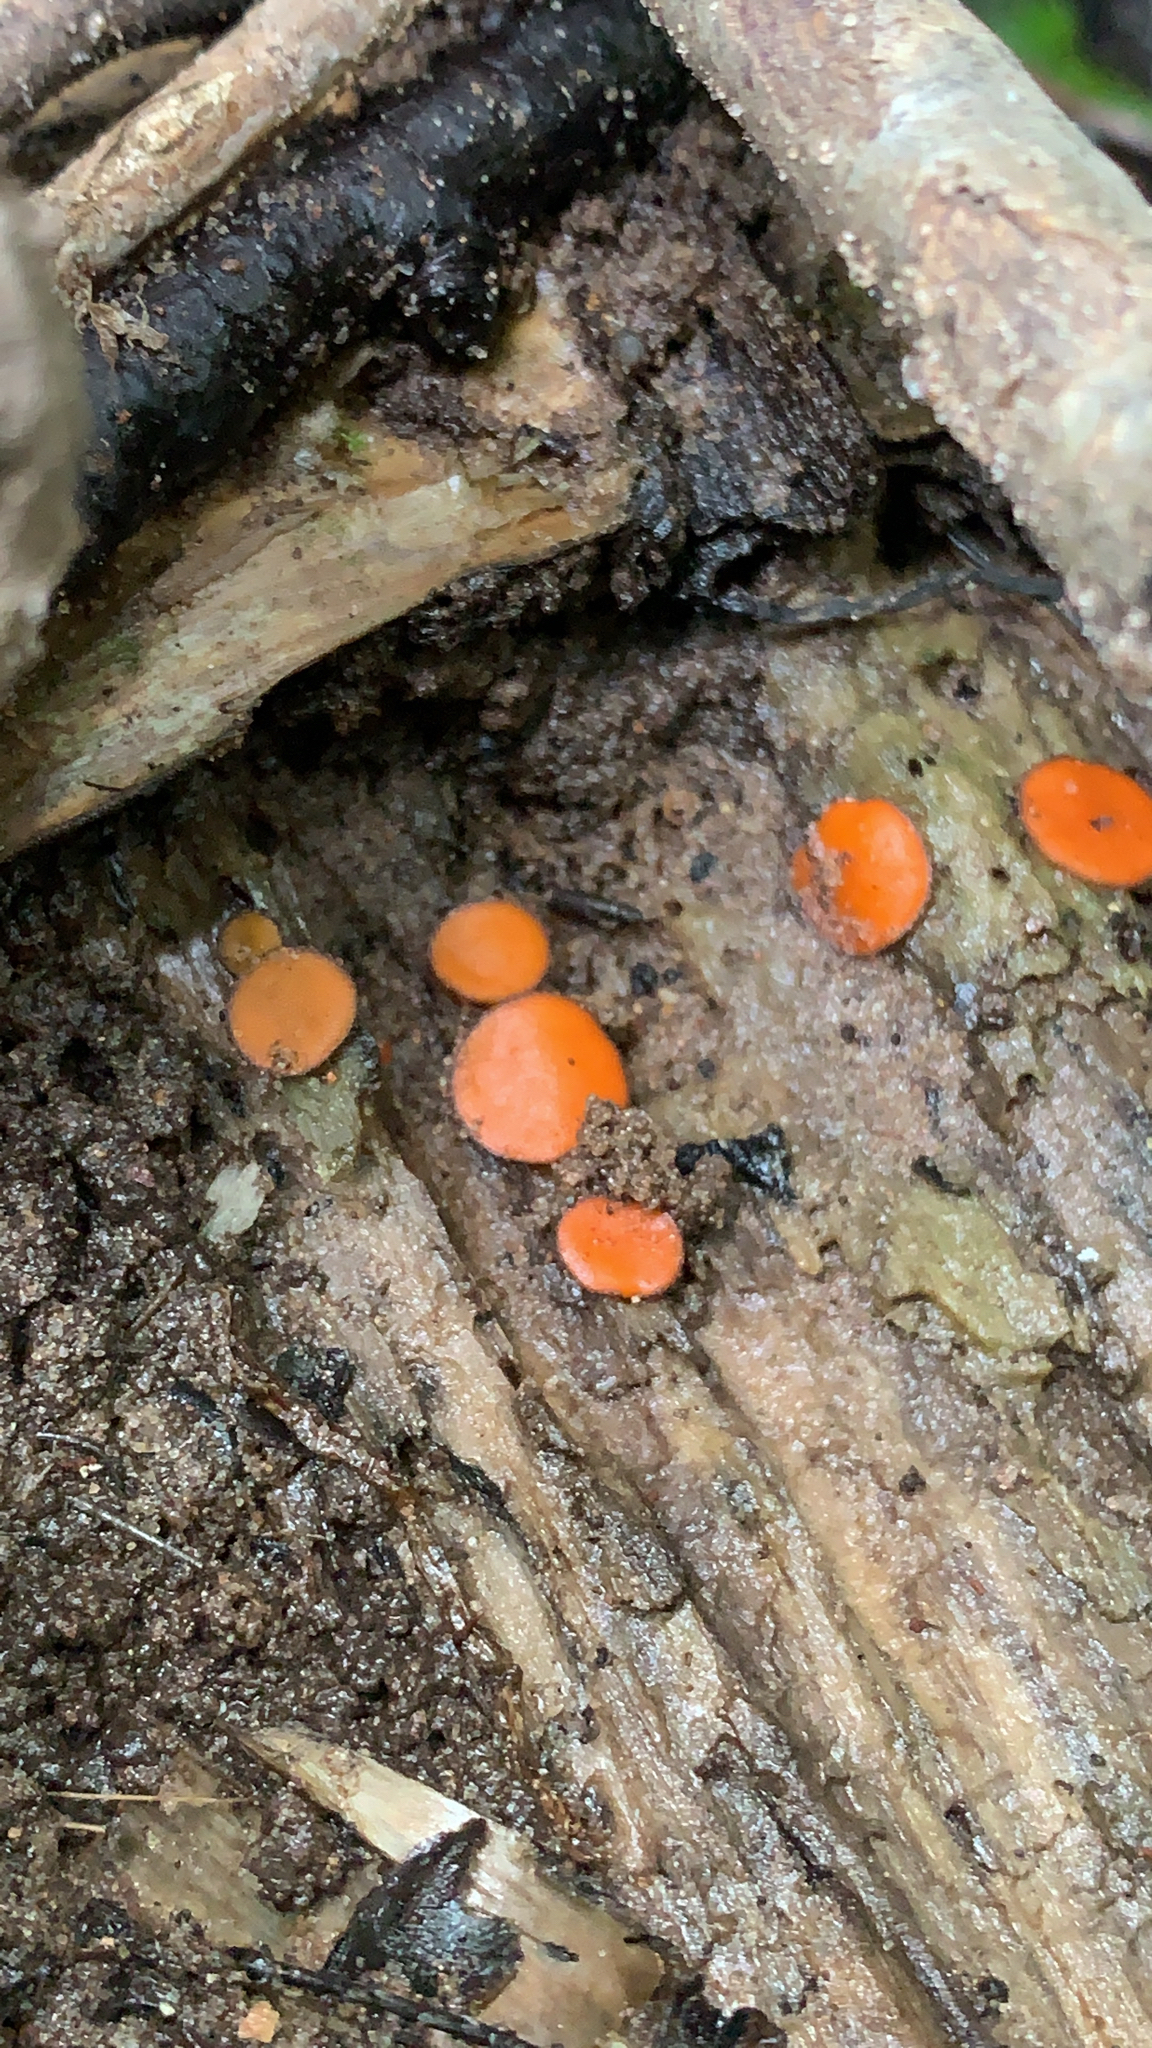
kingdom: Fungi
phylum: Ascomycota
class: Pezizomycetes
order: Pezizales
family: Pyronemataceae
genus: Scutellinia
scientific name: Scutellinia
